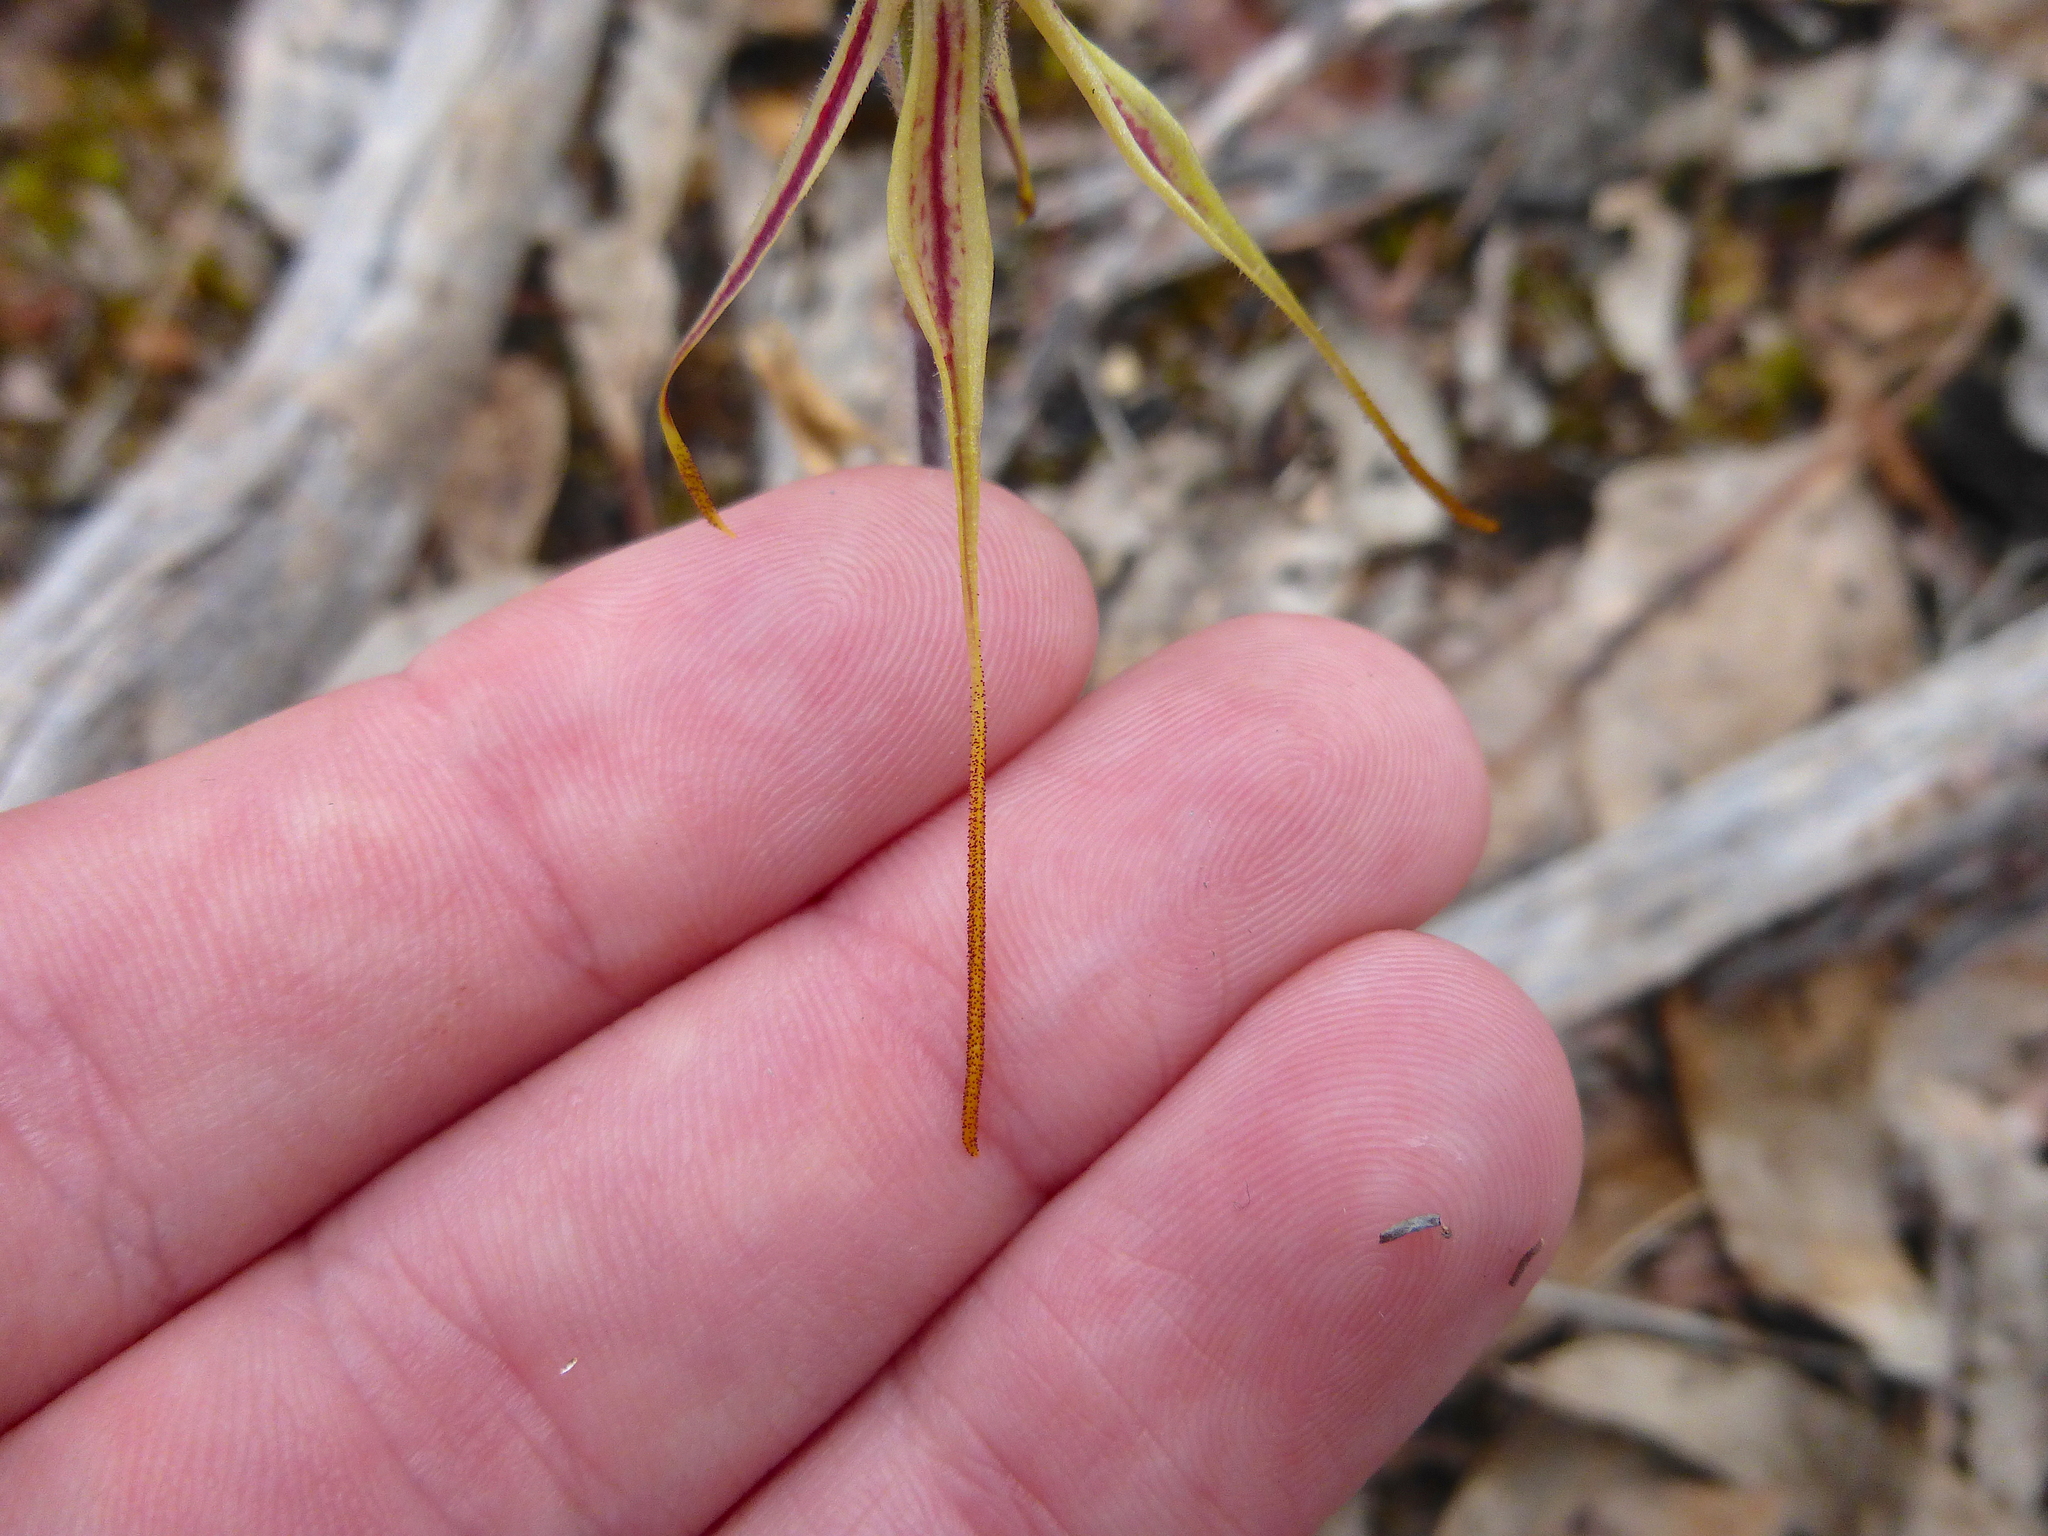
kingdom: Plantae
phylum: Tracheophyta
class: Liliopsida
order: Asparagales
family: Orchidaceae
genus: Caladenia
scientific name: Caladenia parva
